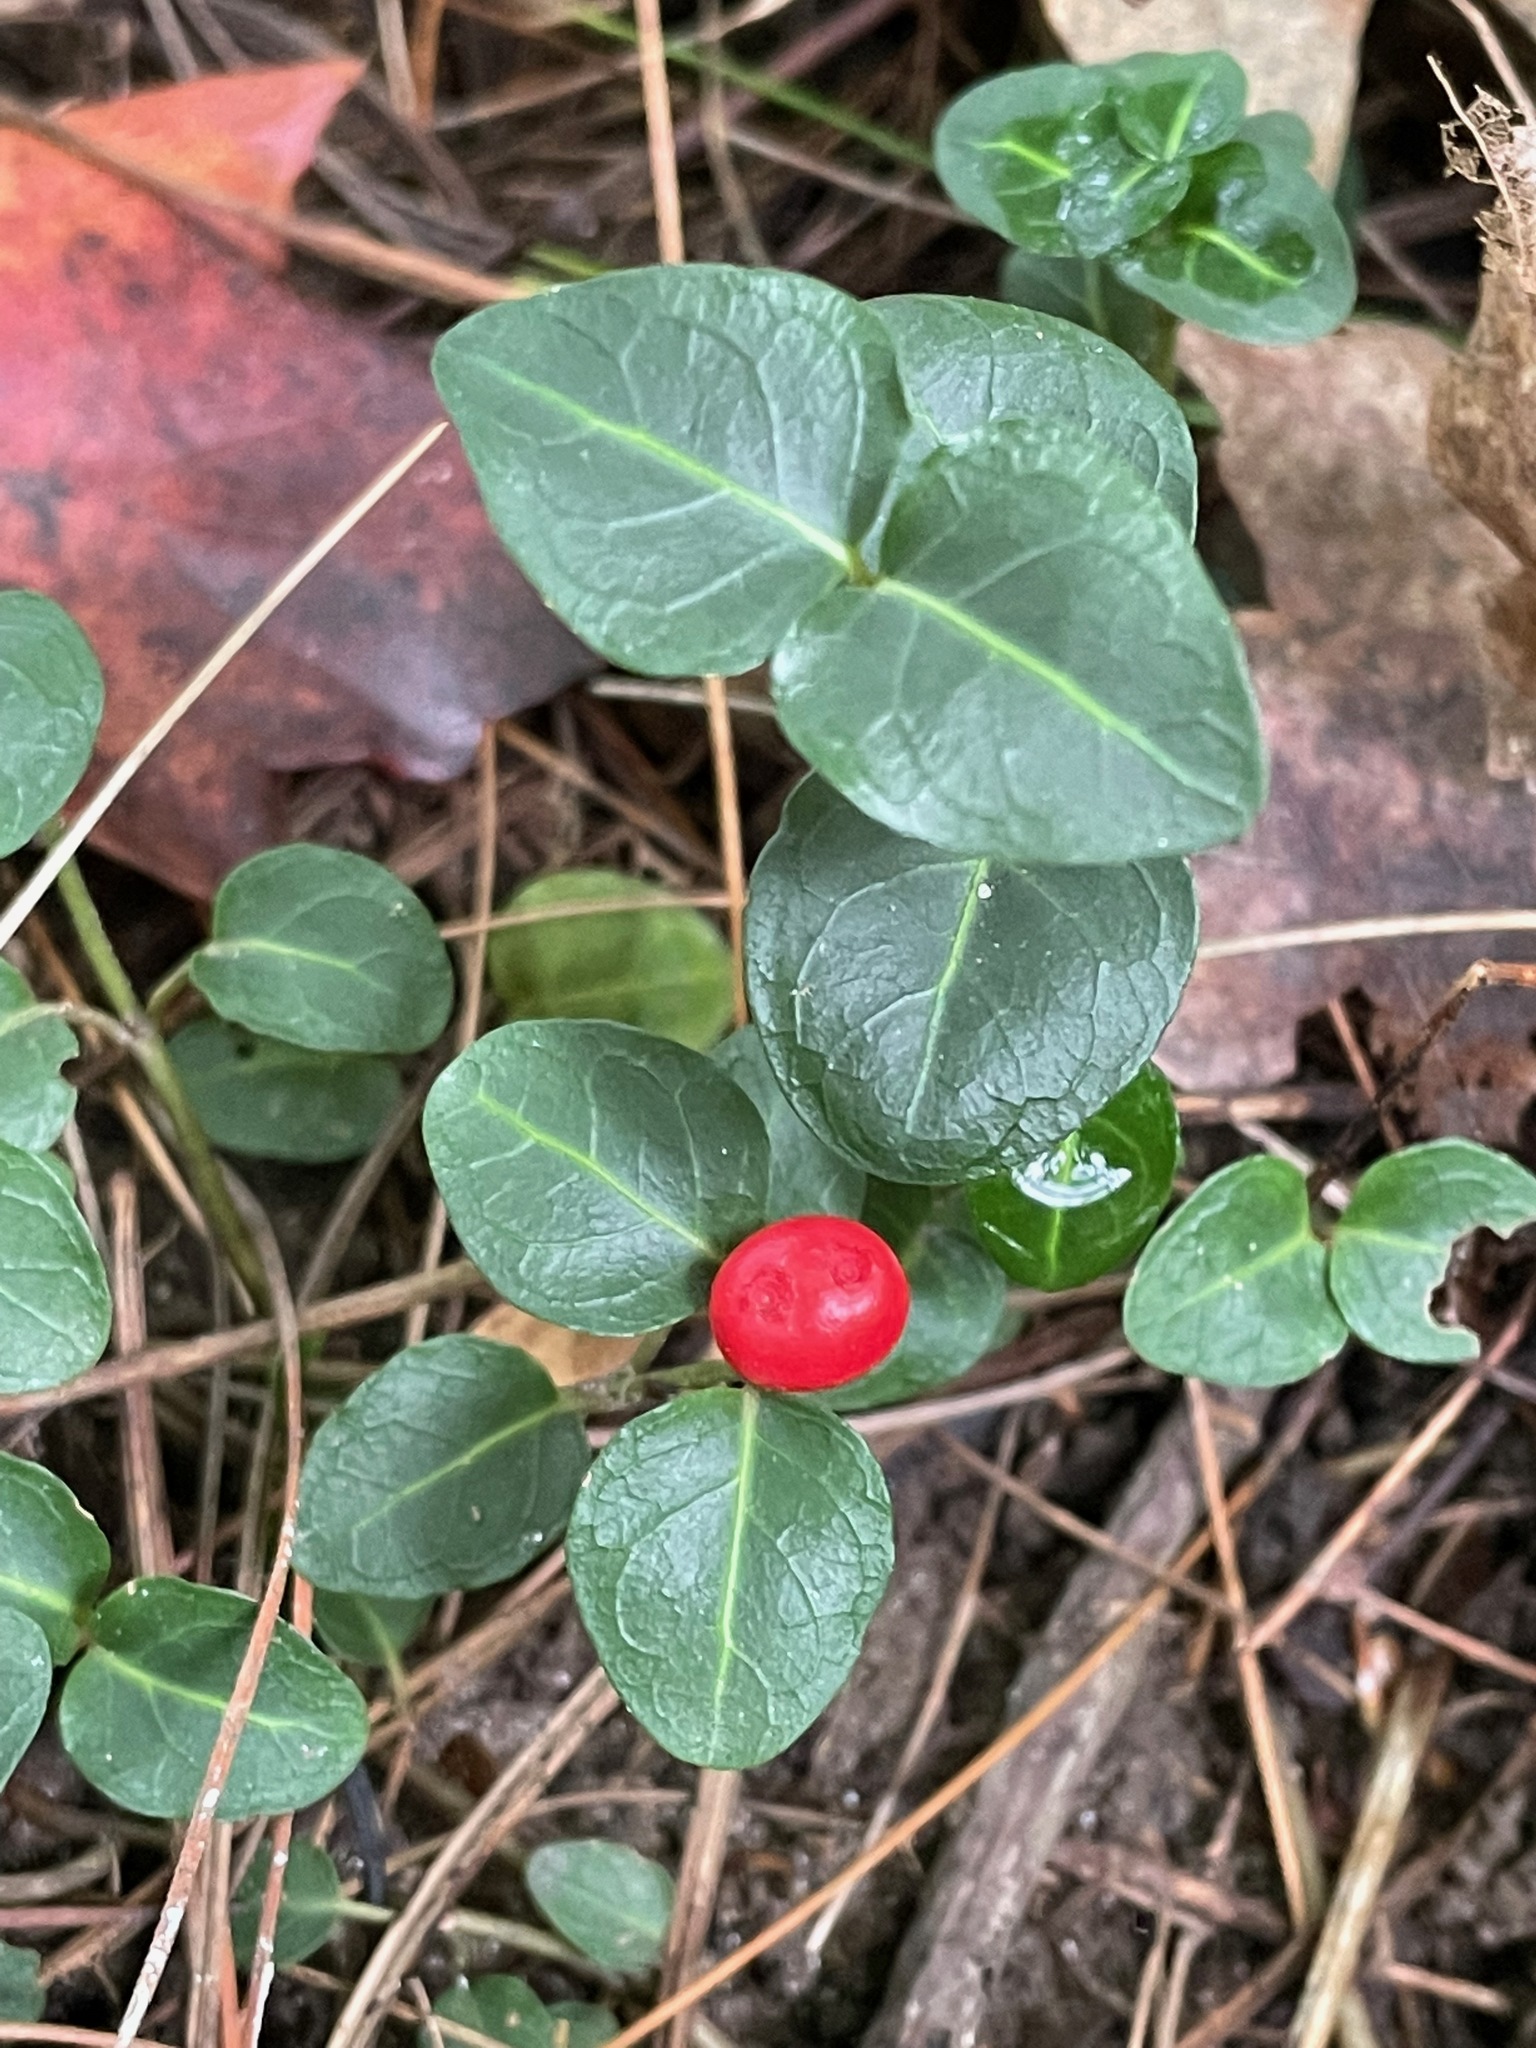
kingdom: Plantae
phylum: Tracheophyta
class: Magnoliopsida
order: Gentianales
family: Rubiaceae
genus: Mitchella
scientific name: Mitchella repens
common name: Partridge-berry
